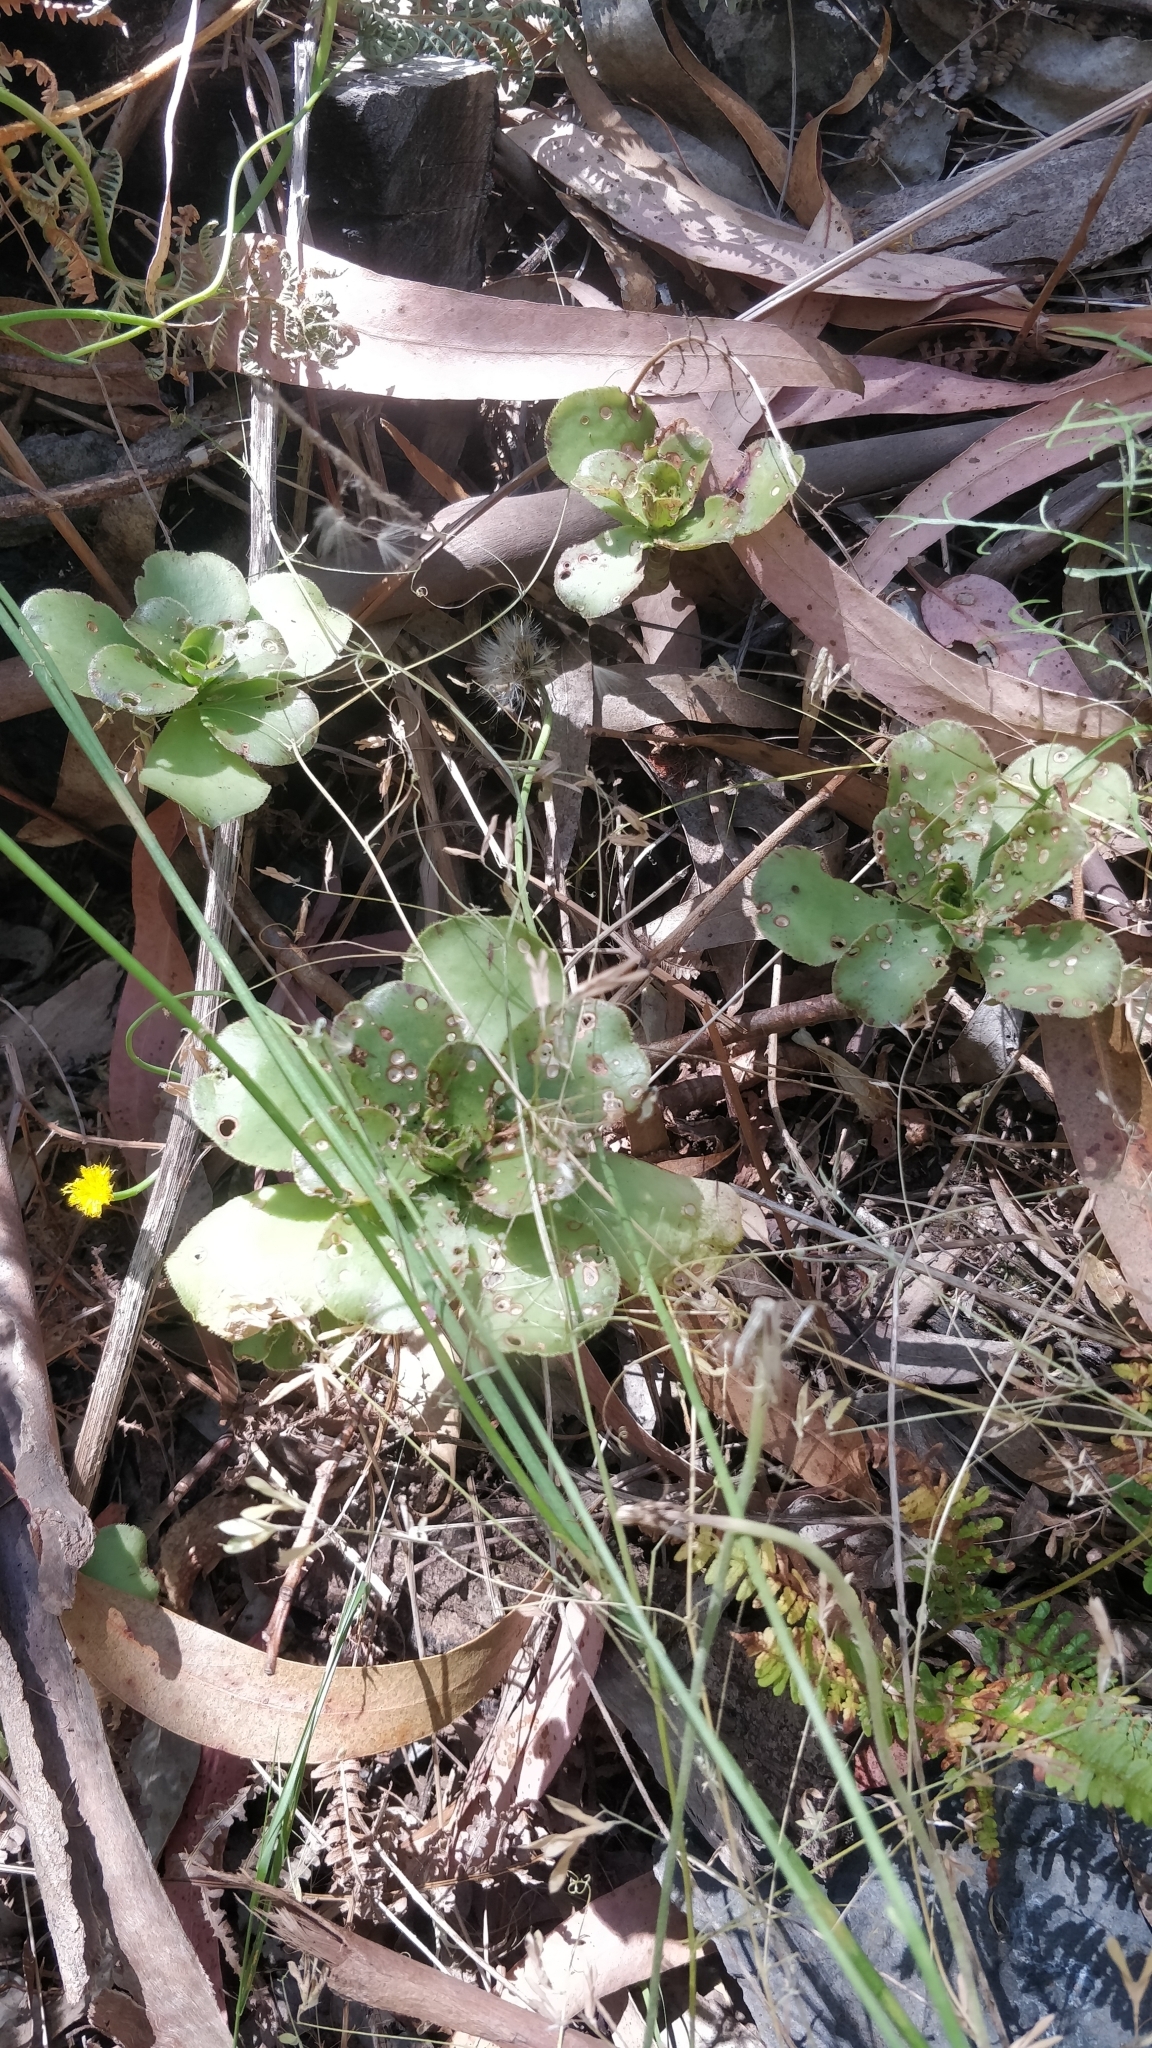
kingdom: Plantae
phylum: Tracheophyta
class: Magnoliopsida
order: Saxifragales
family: Crassulaceae
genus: Aeonium
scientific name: Aeonium glutinosum
